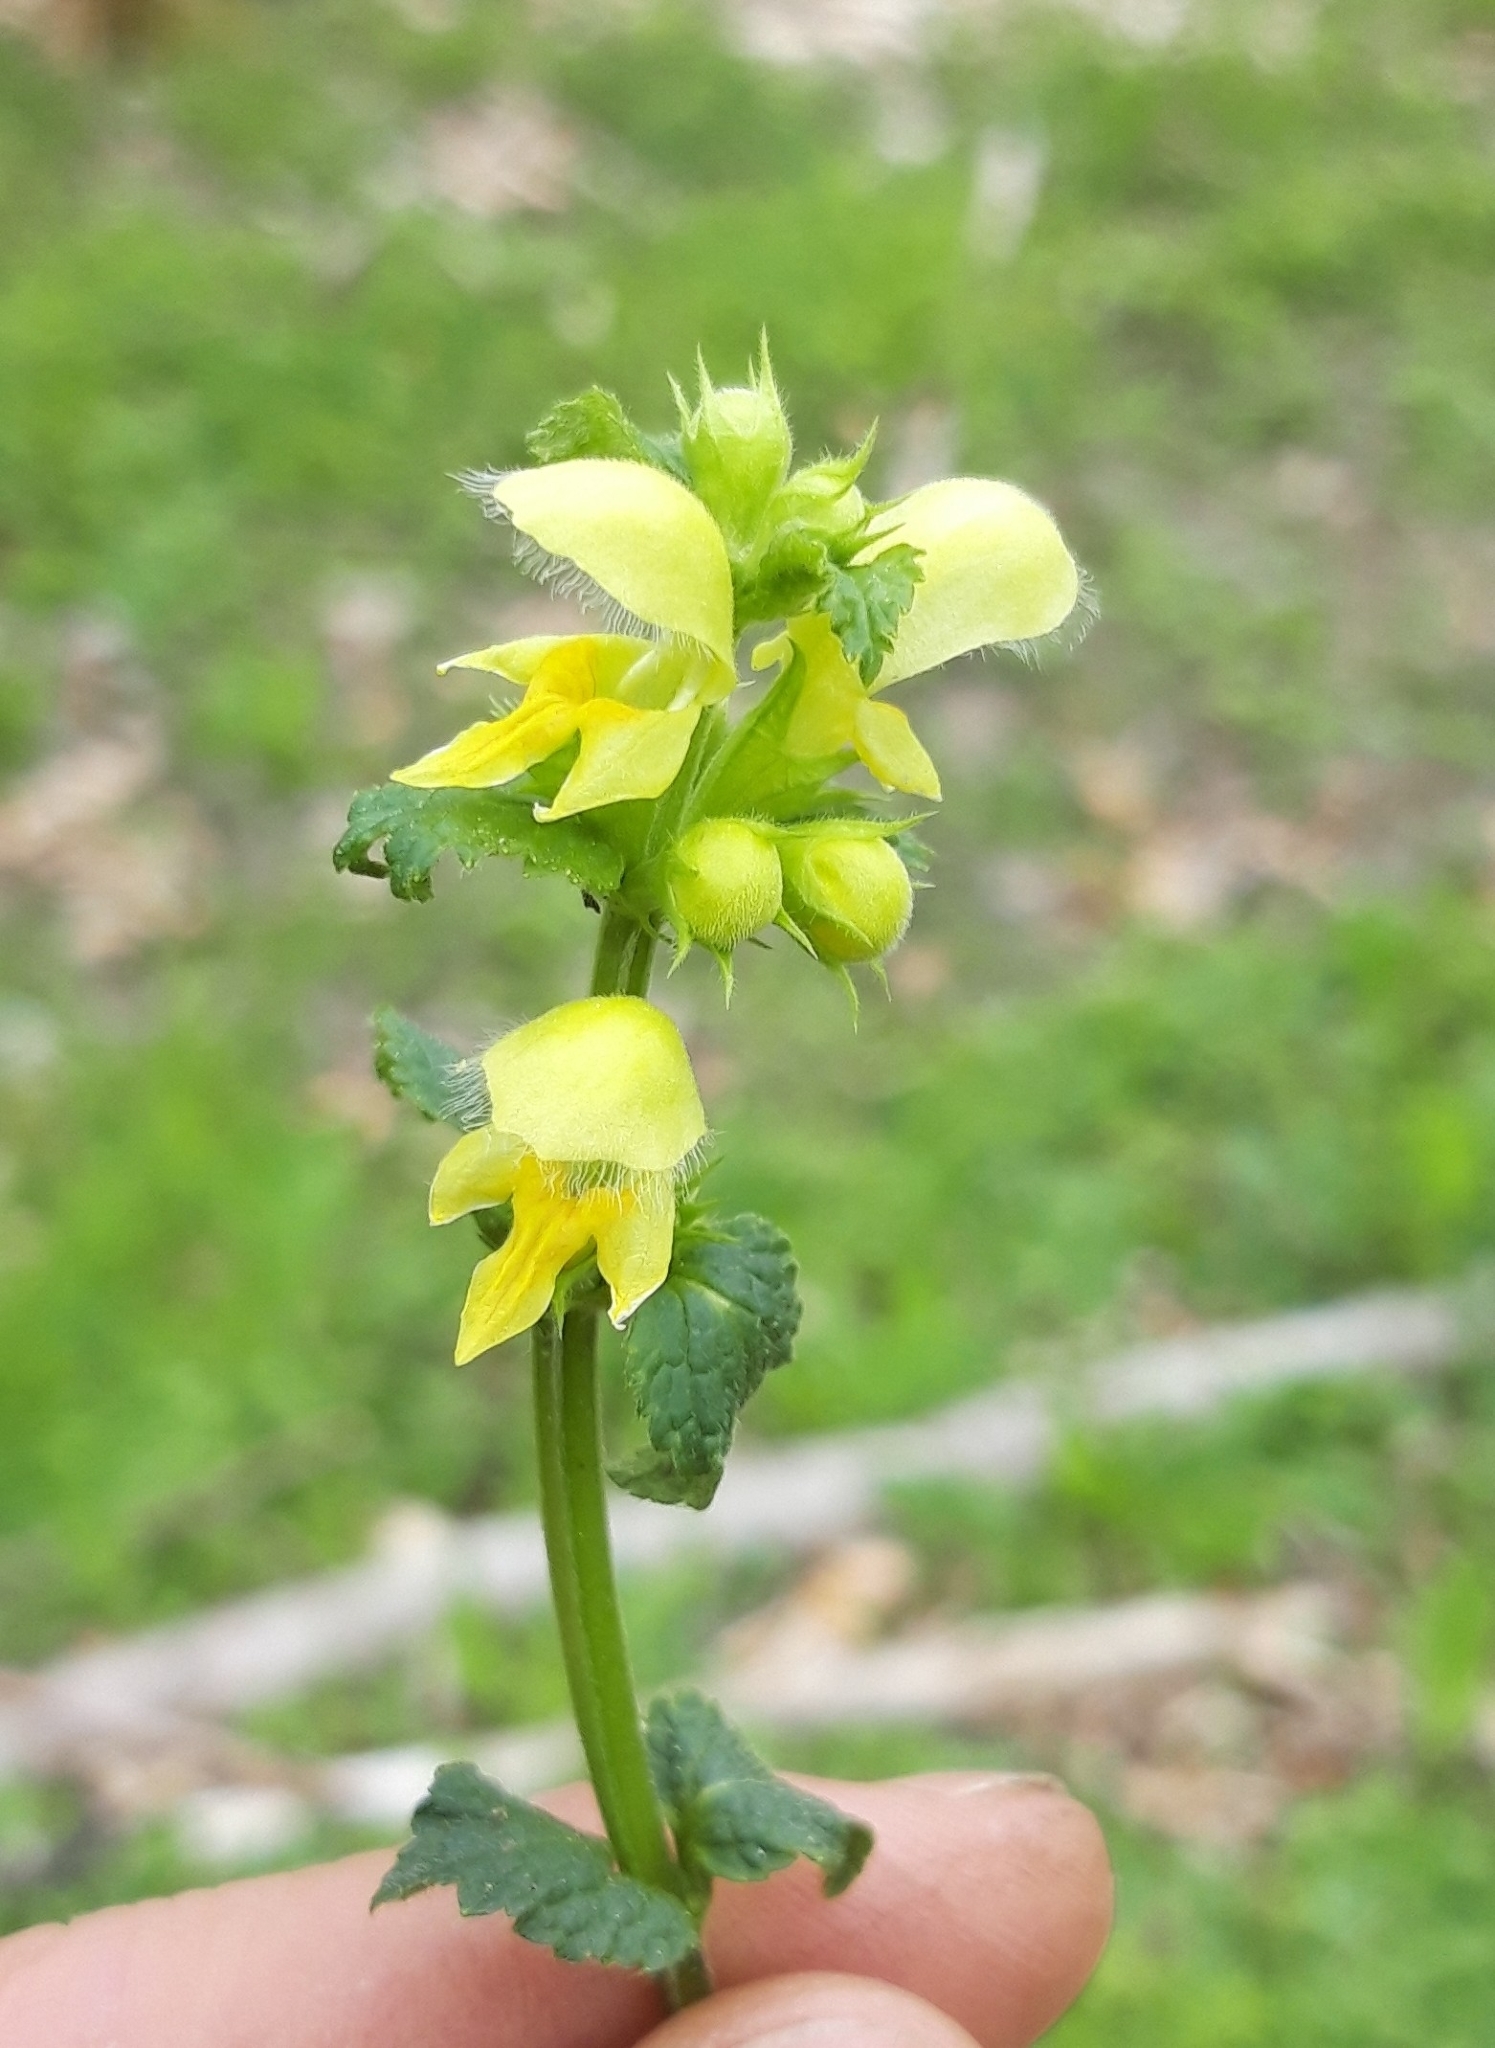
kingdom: Plantae
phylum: Tracheophyta
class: Magnoliopsida
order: Lamiales
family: Lamiaceae
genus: Lamium
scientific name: Lamium galeobdolon
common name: Yellow archangel
